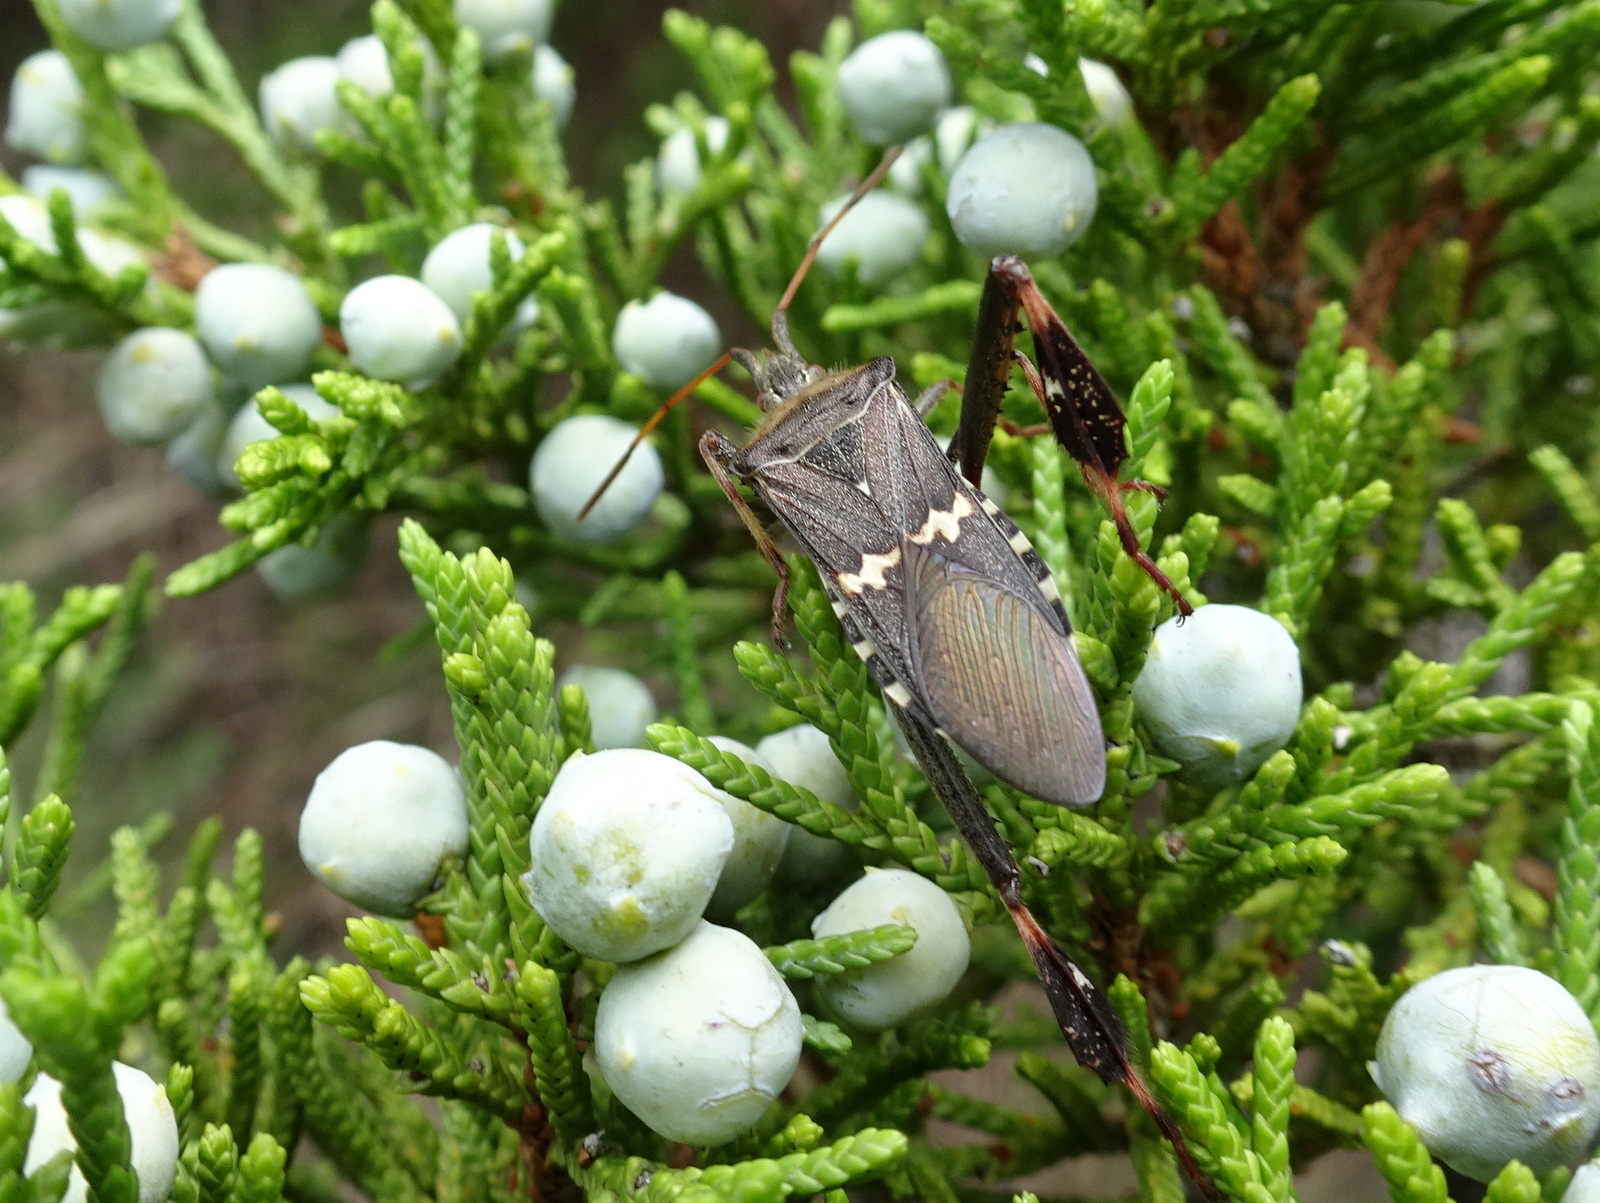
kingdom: Animalia
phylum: Arthropoda
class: Insecta
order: Hemiptera
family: Coreidae
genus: Leptoglossus
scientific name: Leptoglossus clypealis
